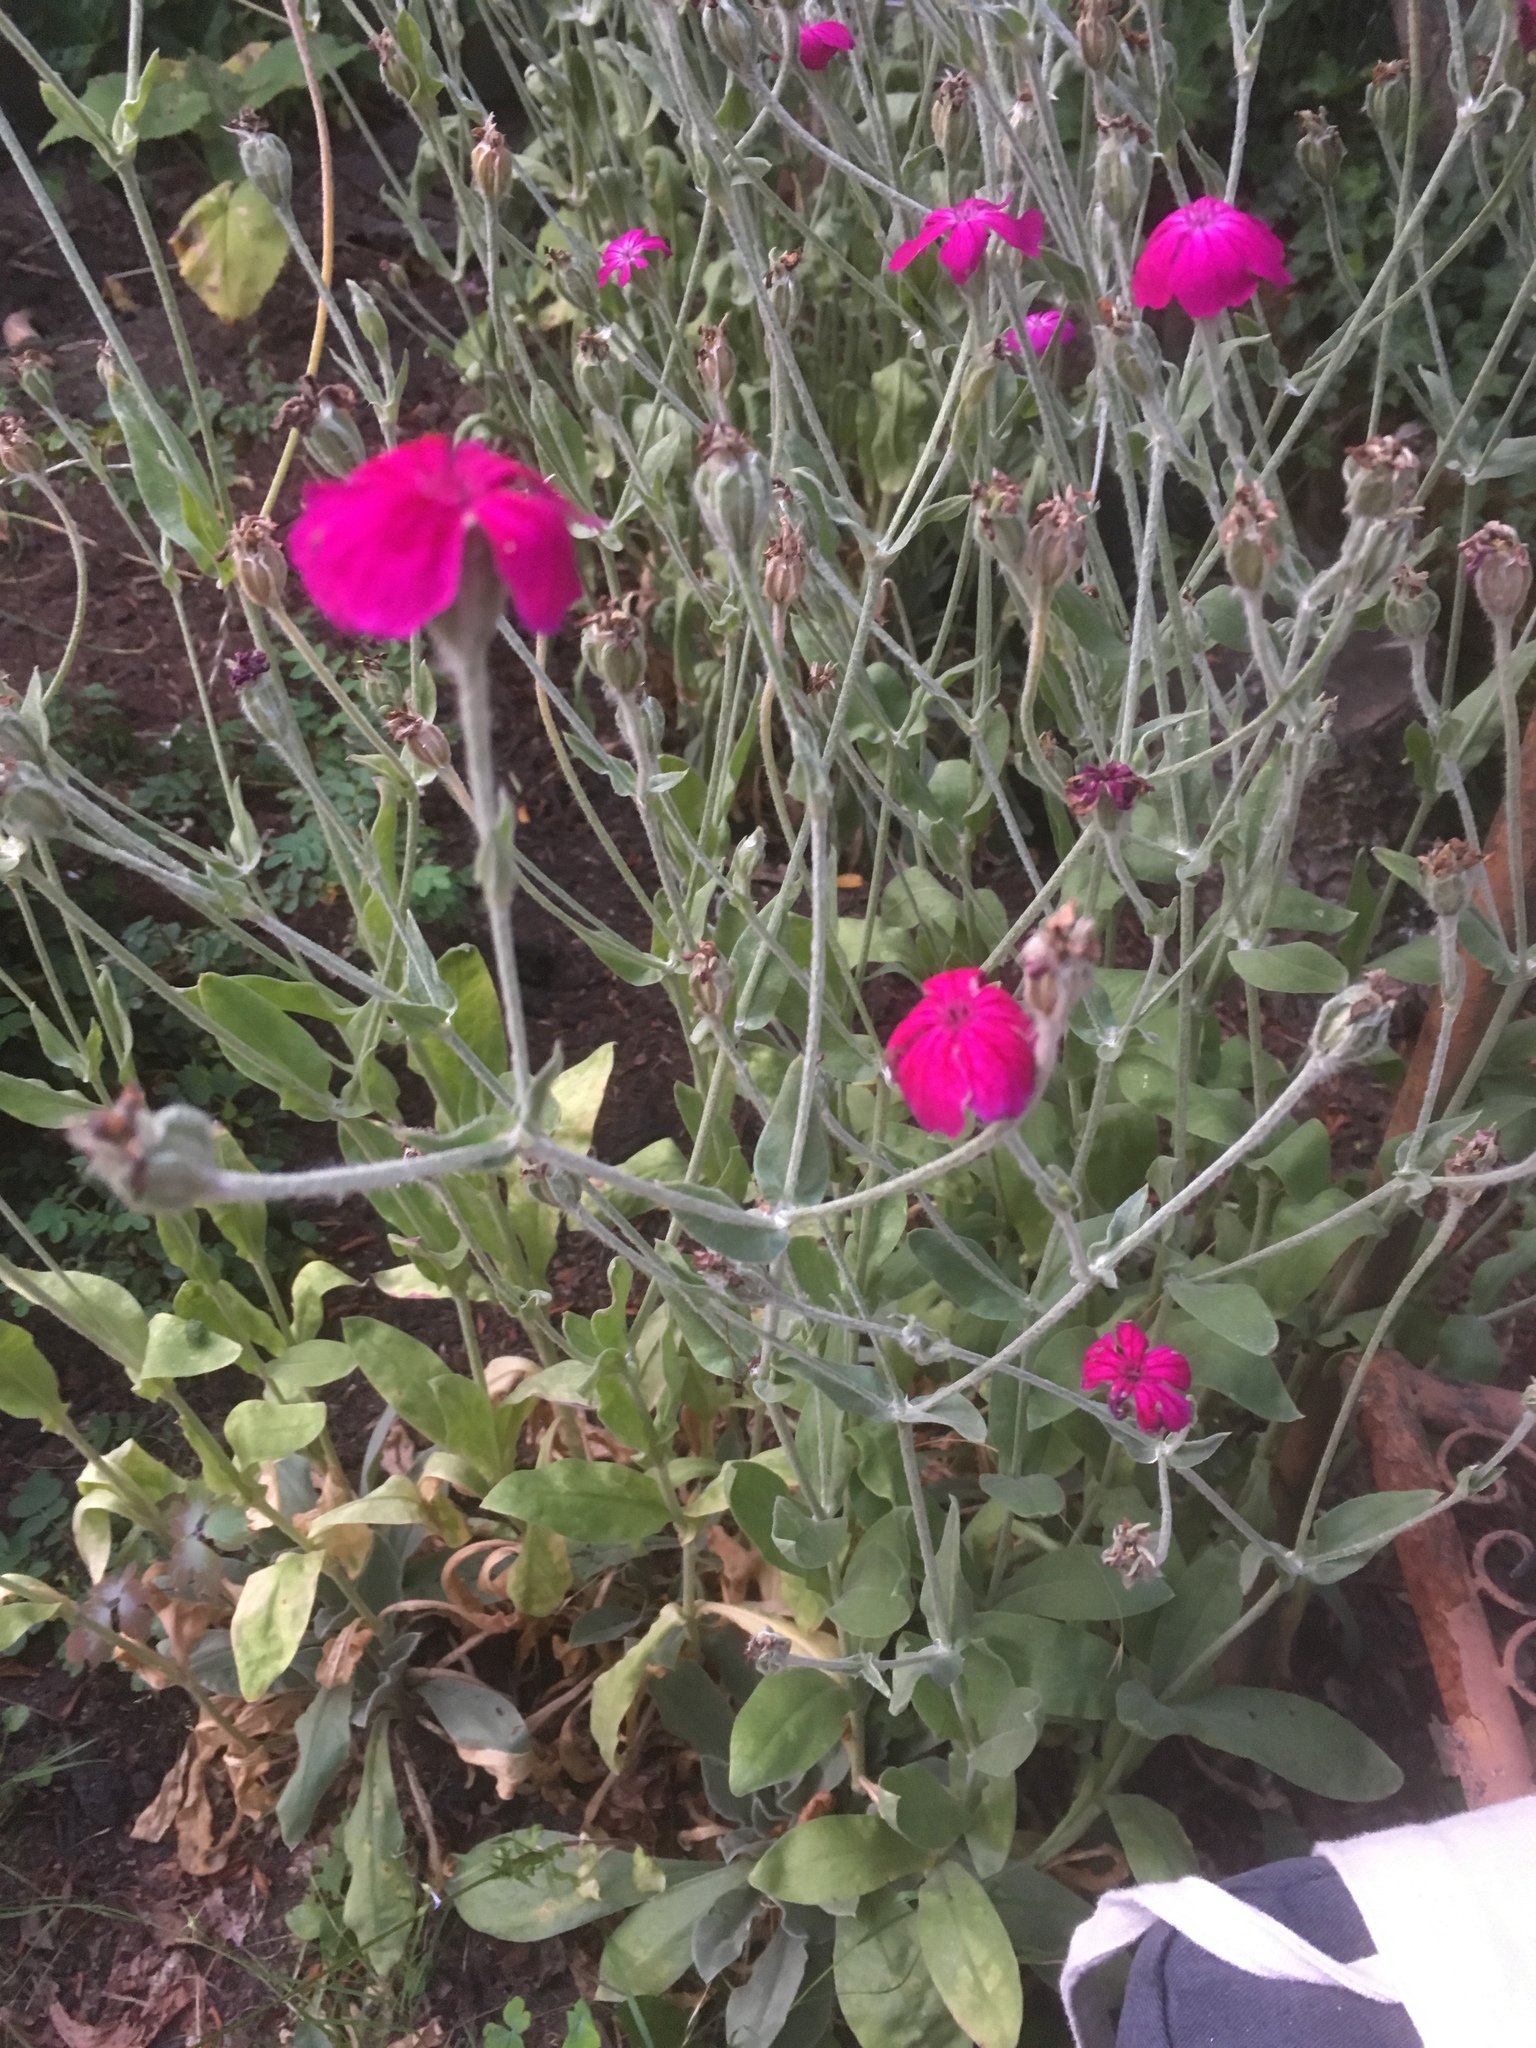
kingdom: Plantae
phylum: Tracheophyta
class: Magnoliopsida
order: Caryophyllales
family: Caryophyllaceae
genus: Silene
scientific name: Silene coronaria
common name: Rose campion
